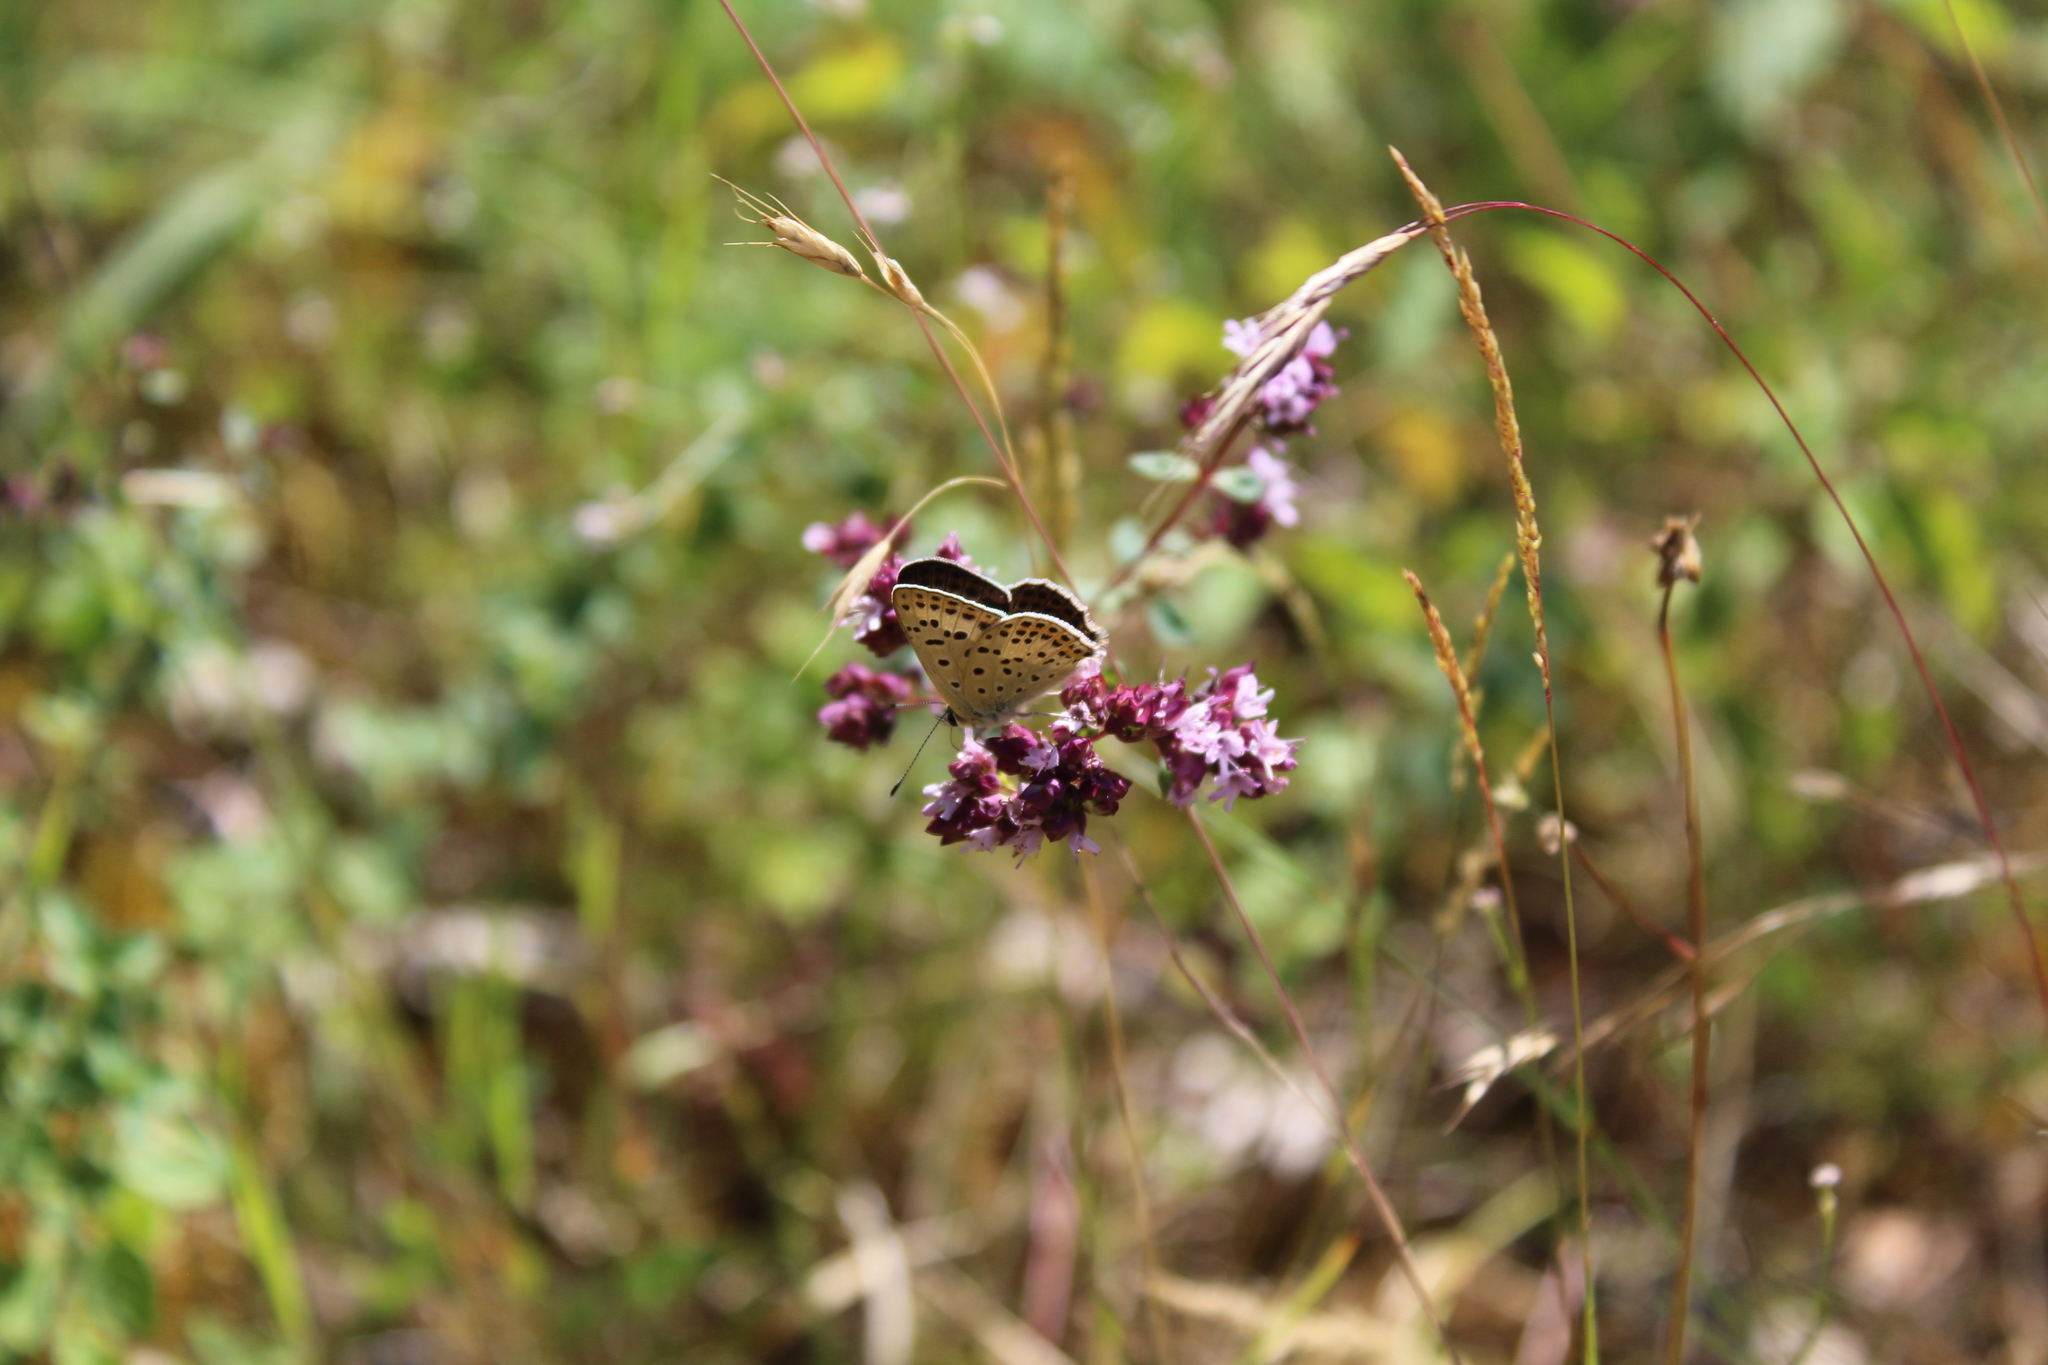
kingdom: Animalia
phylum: Arthropoda
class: Insecta
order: Lepidoptera
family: Lycaenidae
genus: Loweia
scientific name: Loweia tityrus
